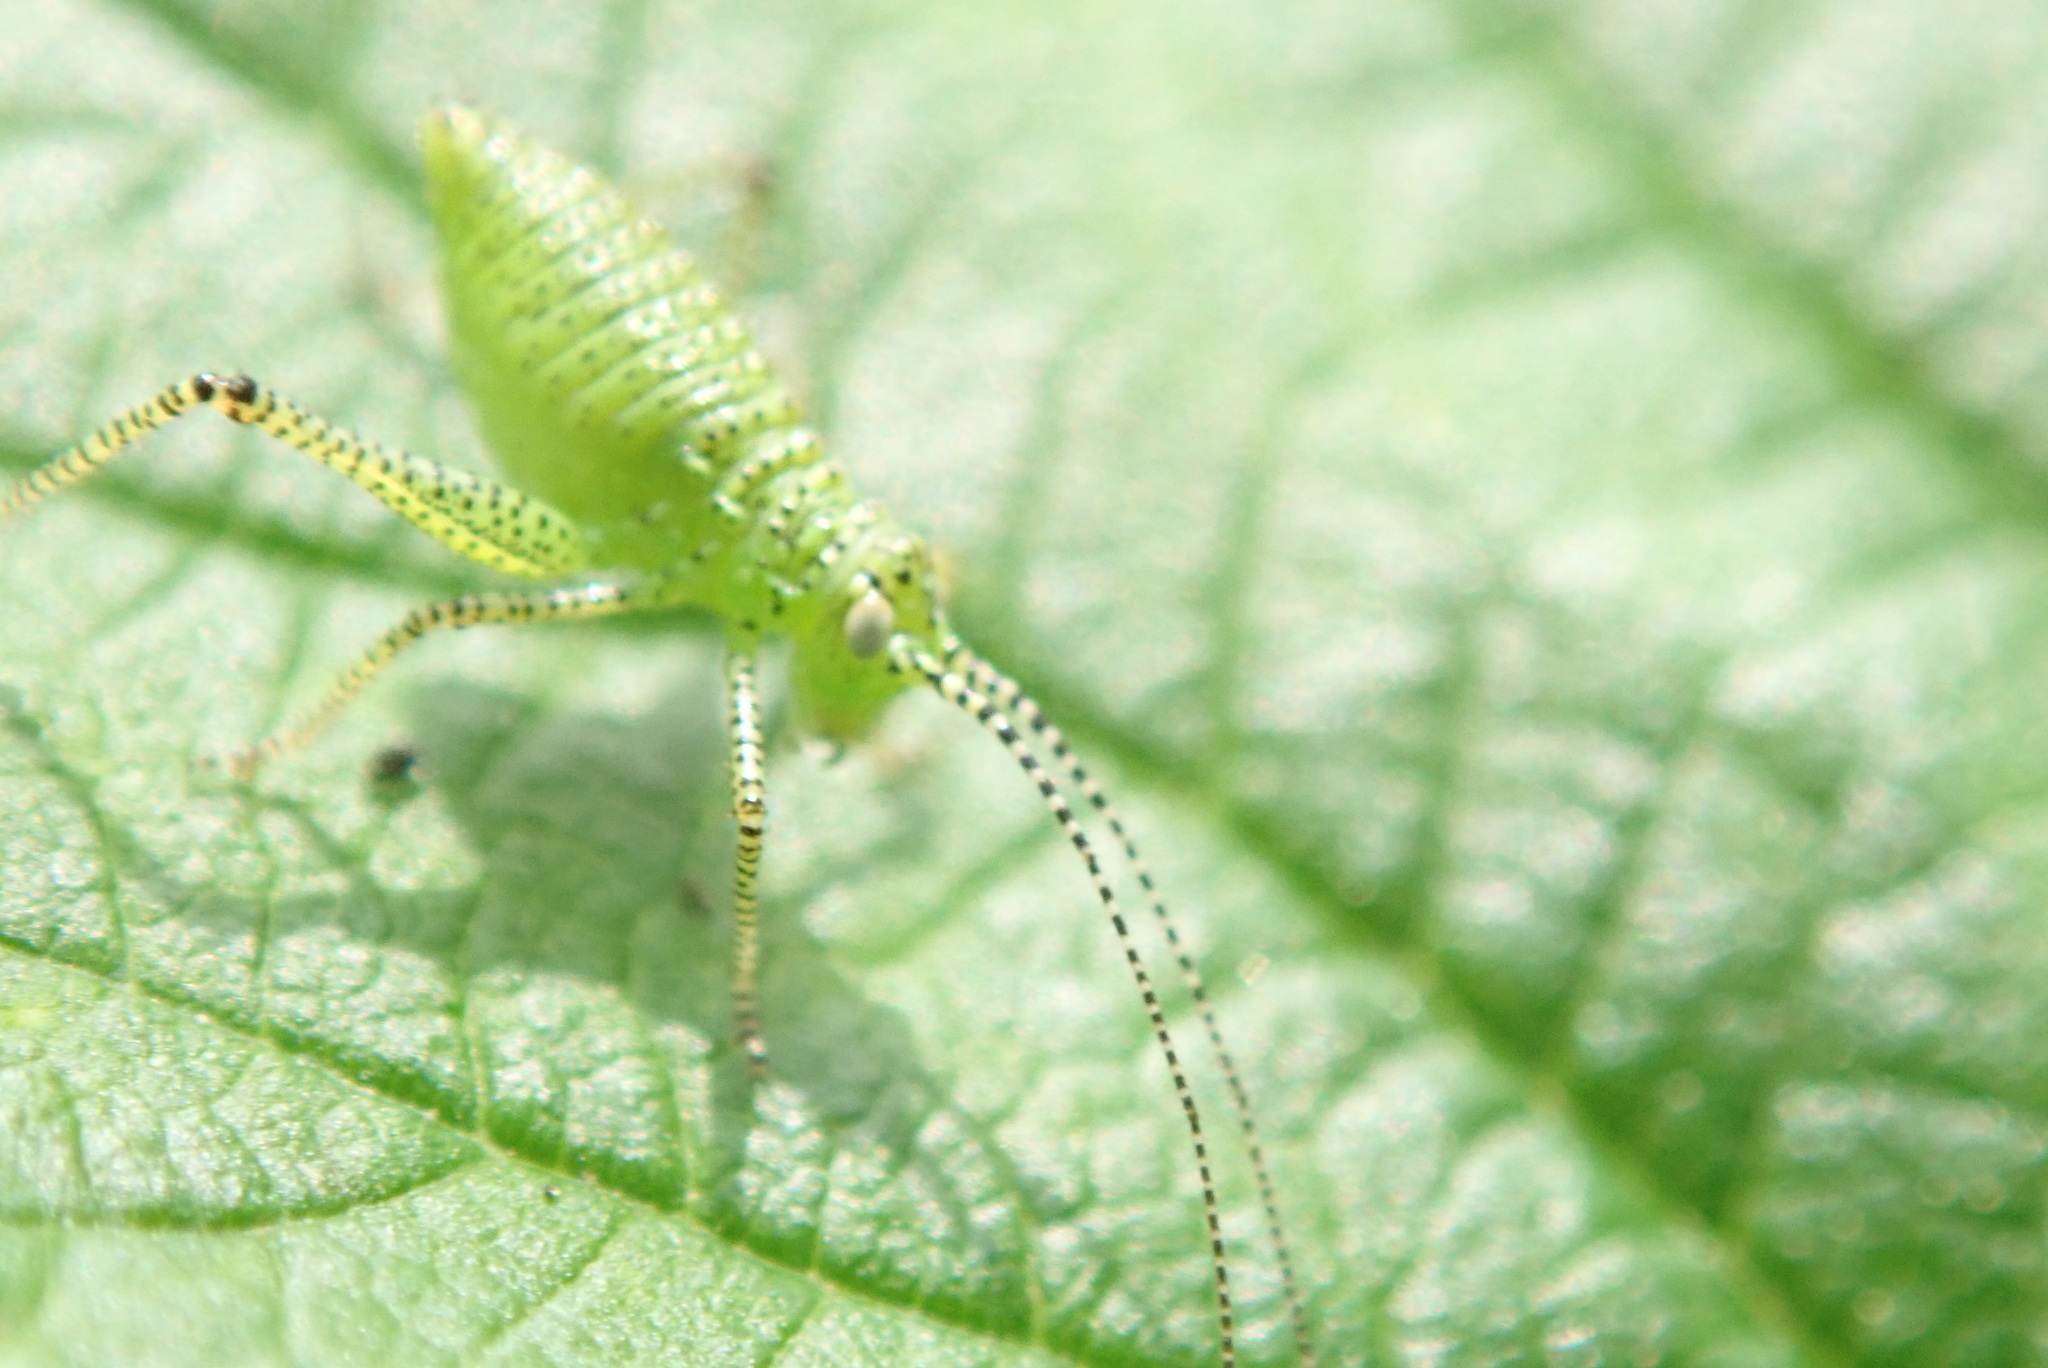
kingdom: Animalia
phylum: Arthropoda
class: Insecta
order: Orthoptera
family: Tettigoniidae
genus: Leptophyes
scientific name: Leptophyes punctatissima
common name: Speckled bush-cricket
